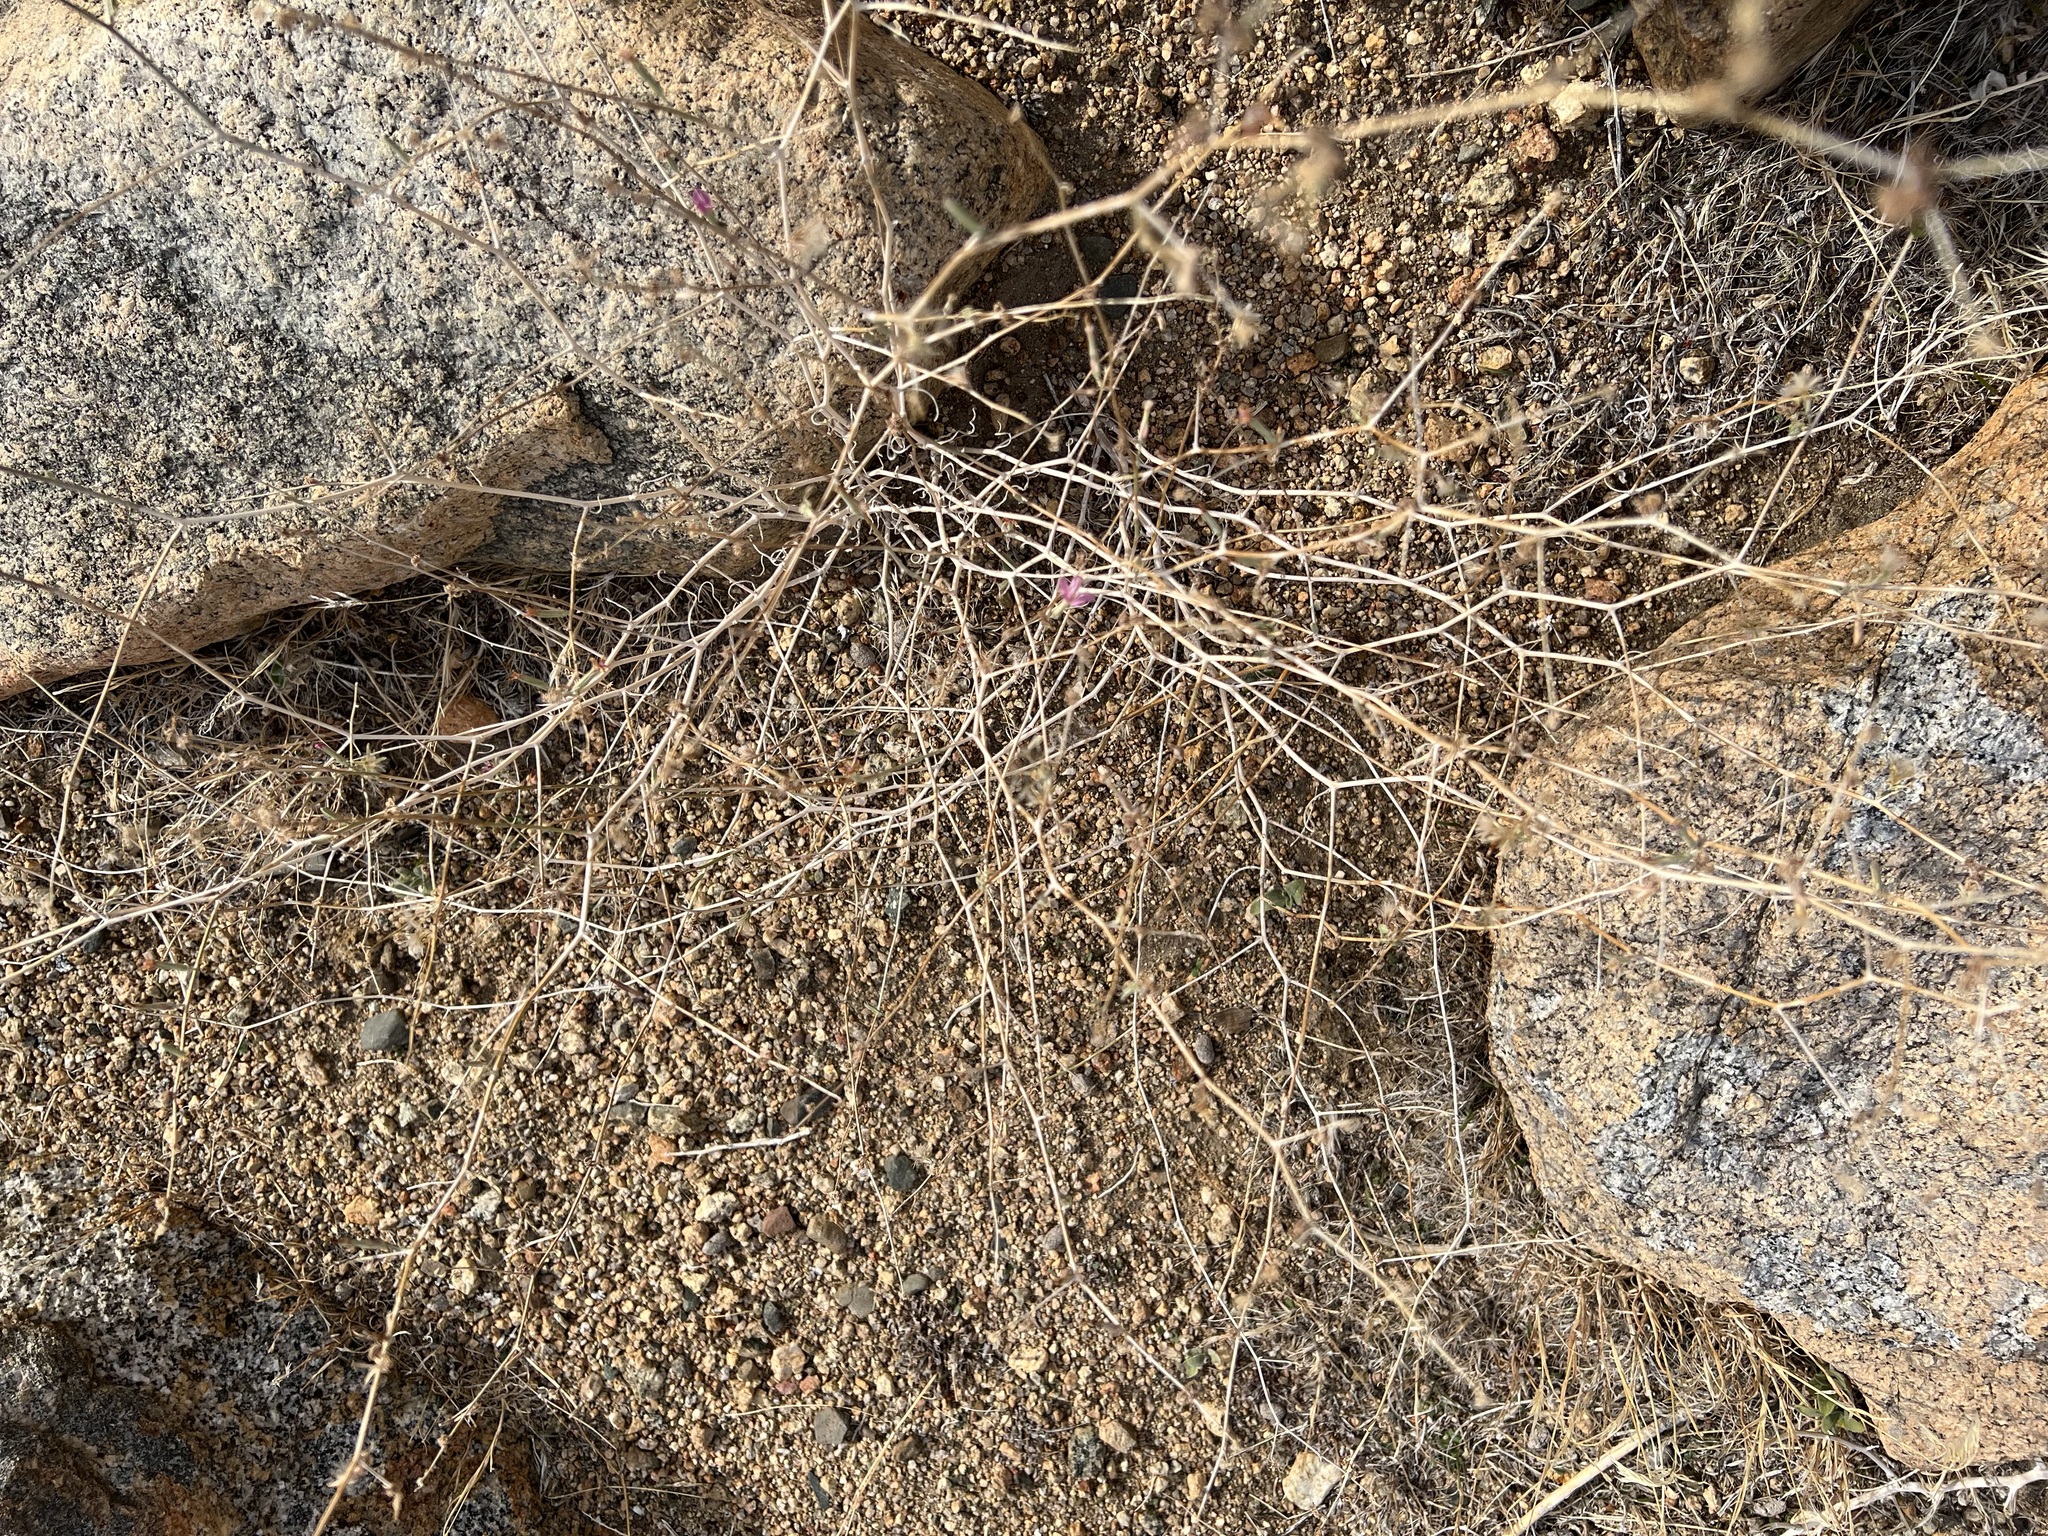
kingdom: Plantae
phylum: Tracheophyta
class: Magnoliopsida
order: Asterales
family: Asteraceae
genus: Stephanomeria
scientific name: Stephanomeria pauciflora
